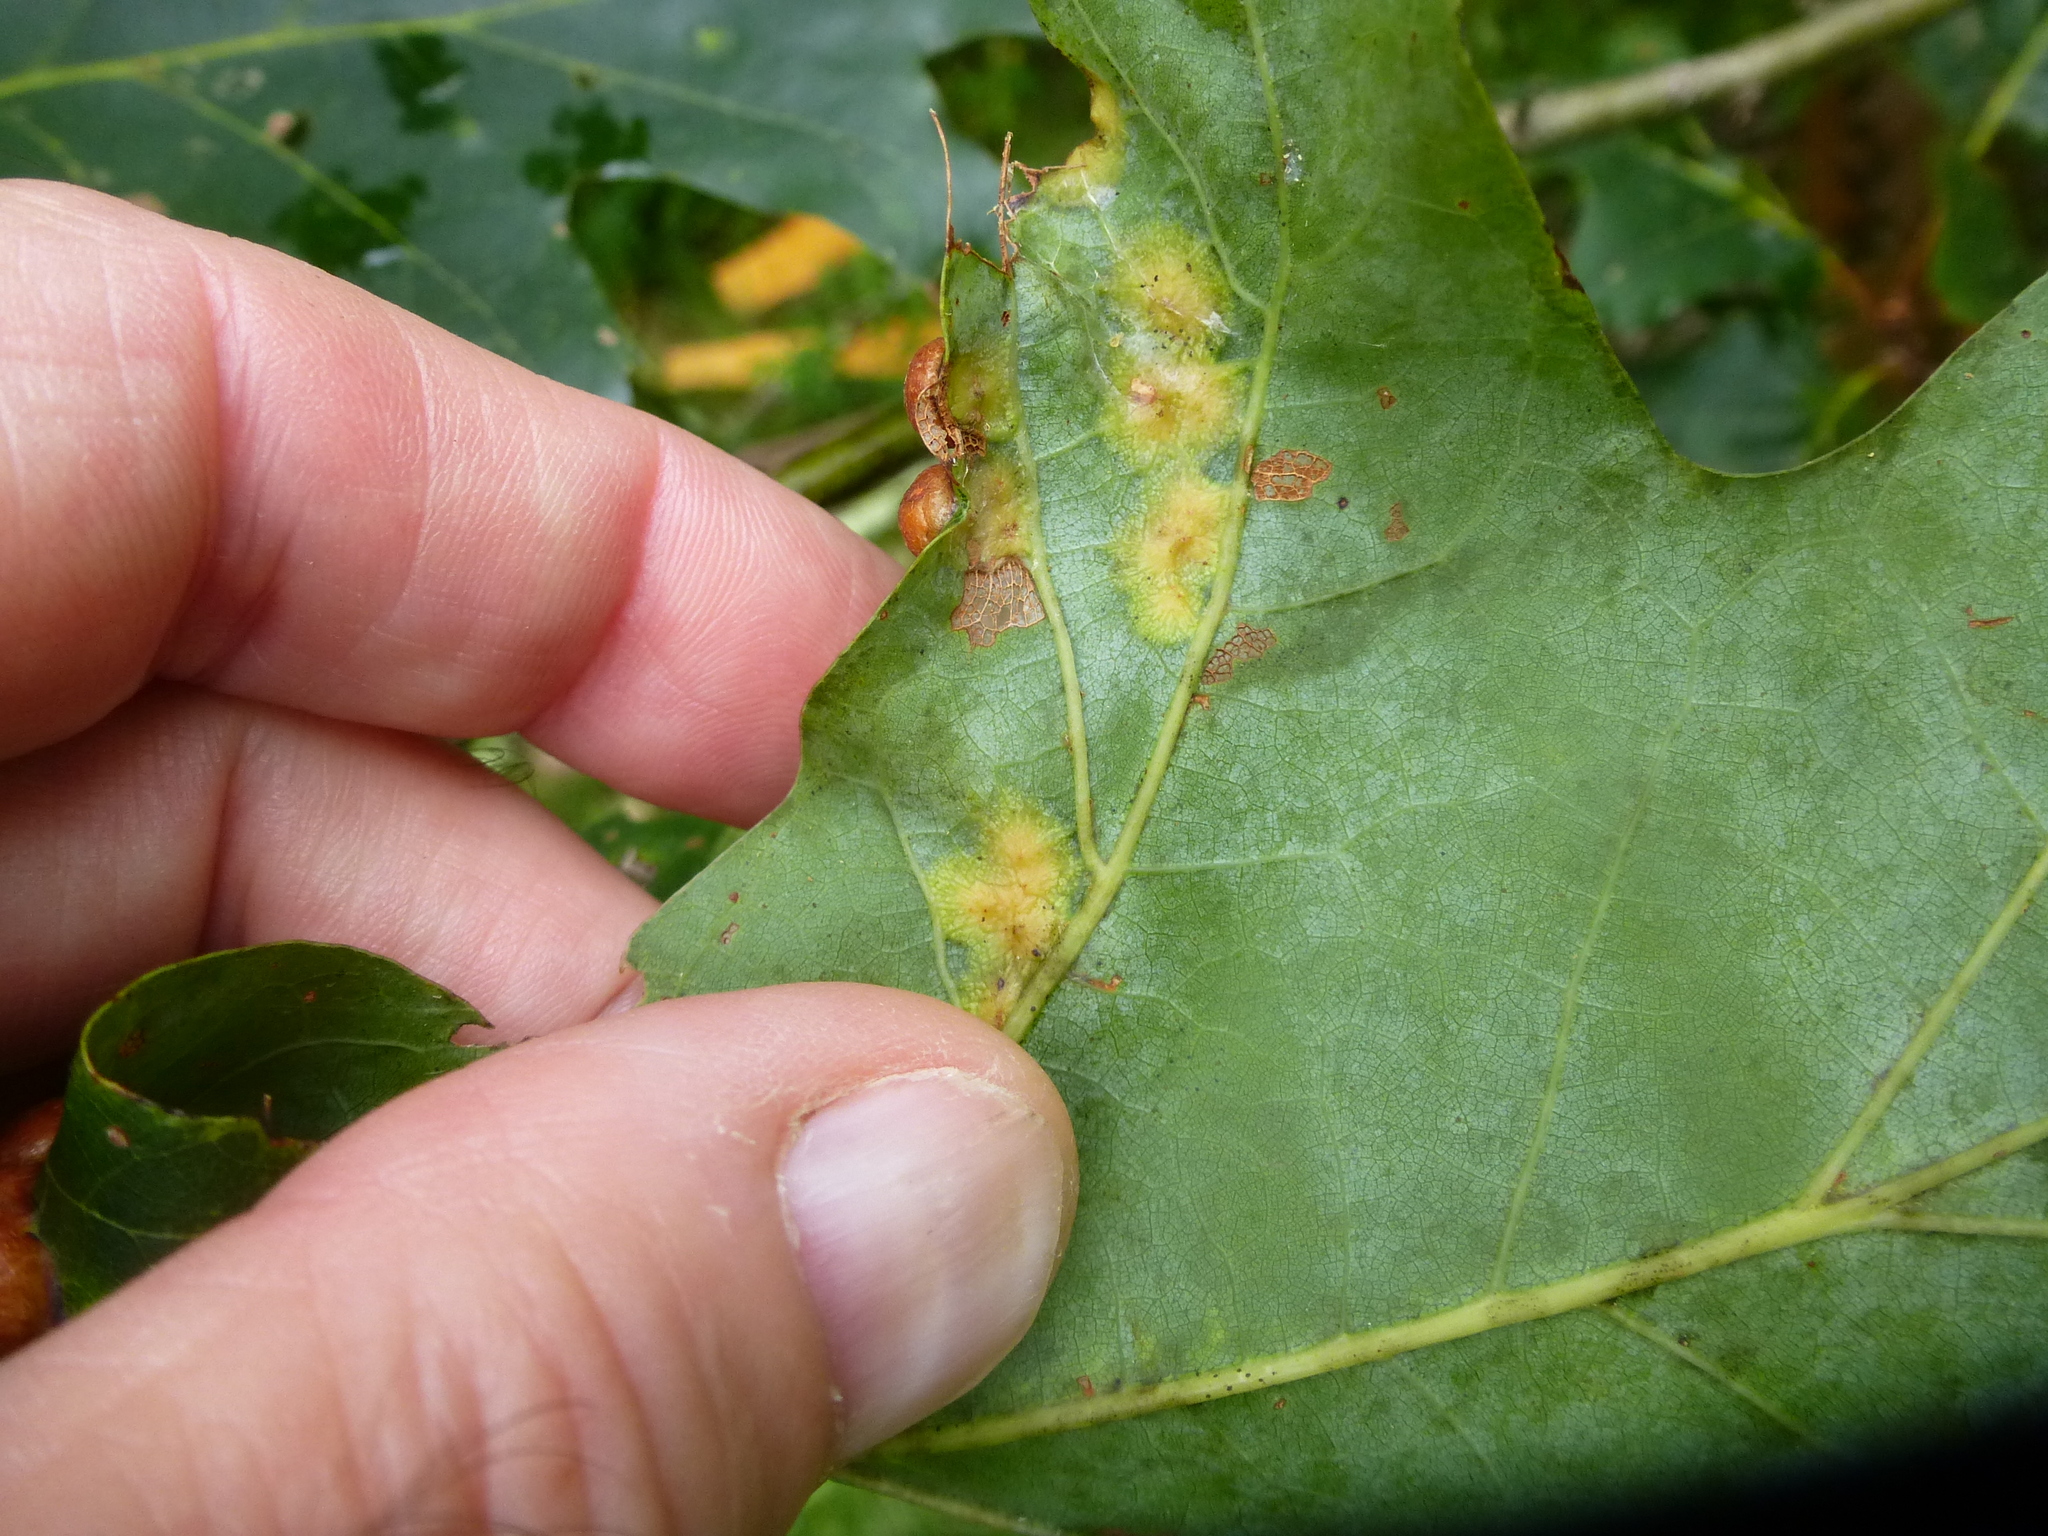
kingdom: Animalia
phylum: Arthropoda
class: Insecta
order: Diptera
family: Cecidomyiidae
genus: Polystepha
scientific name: Polystepha pilulae
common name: Oak leaf gall midge
